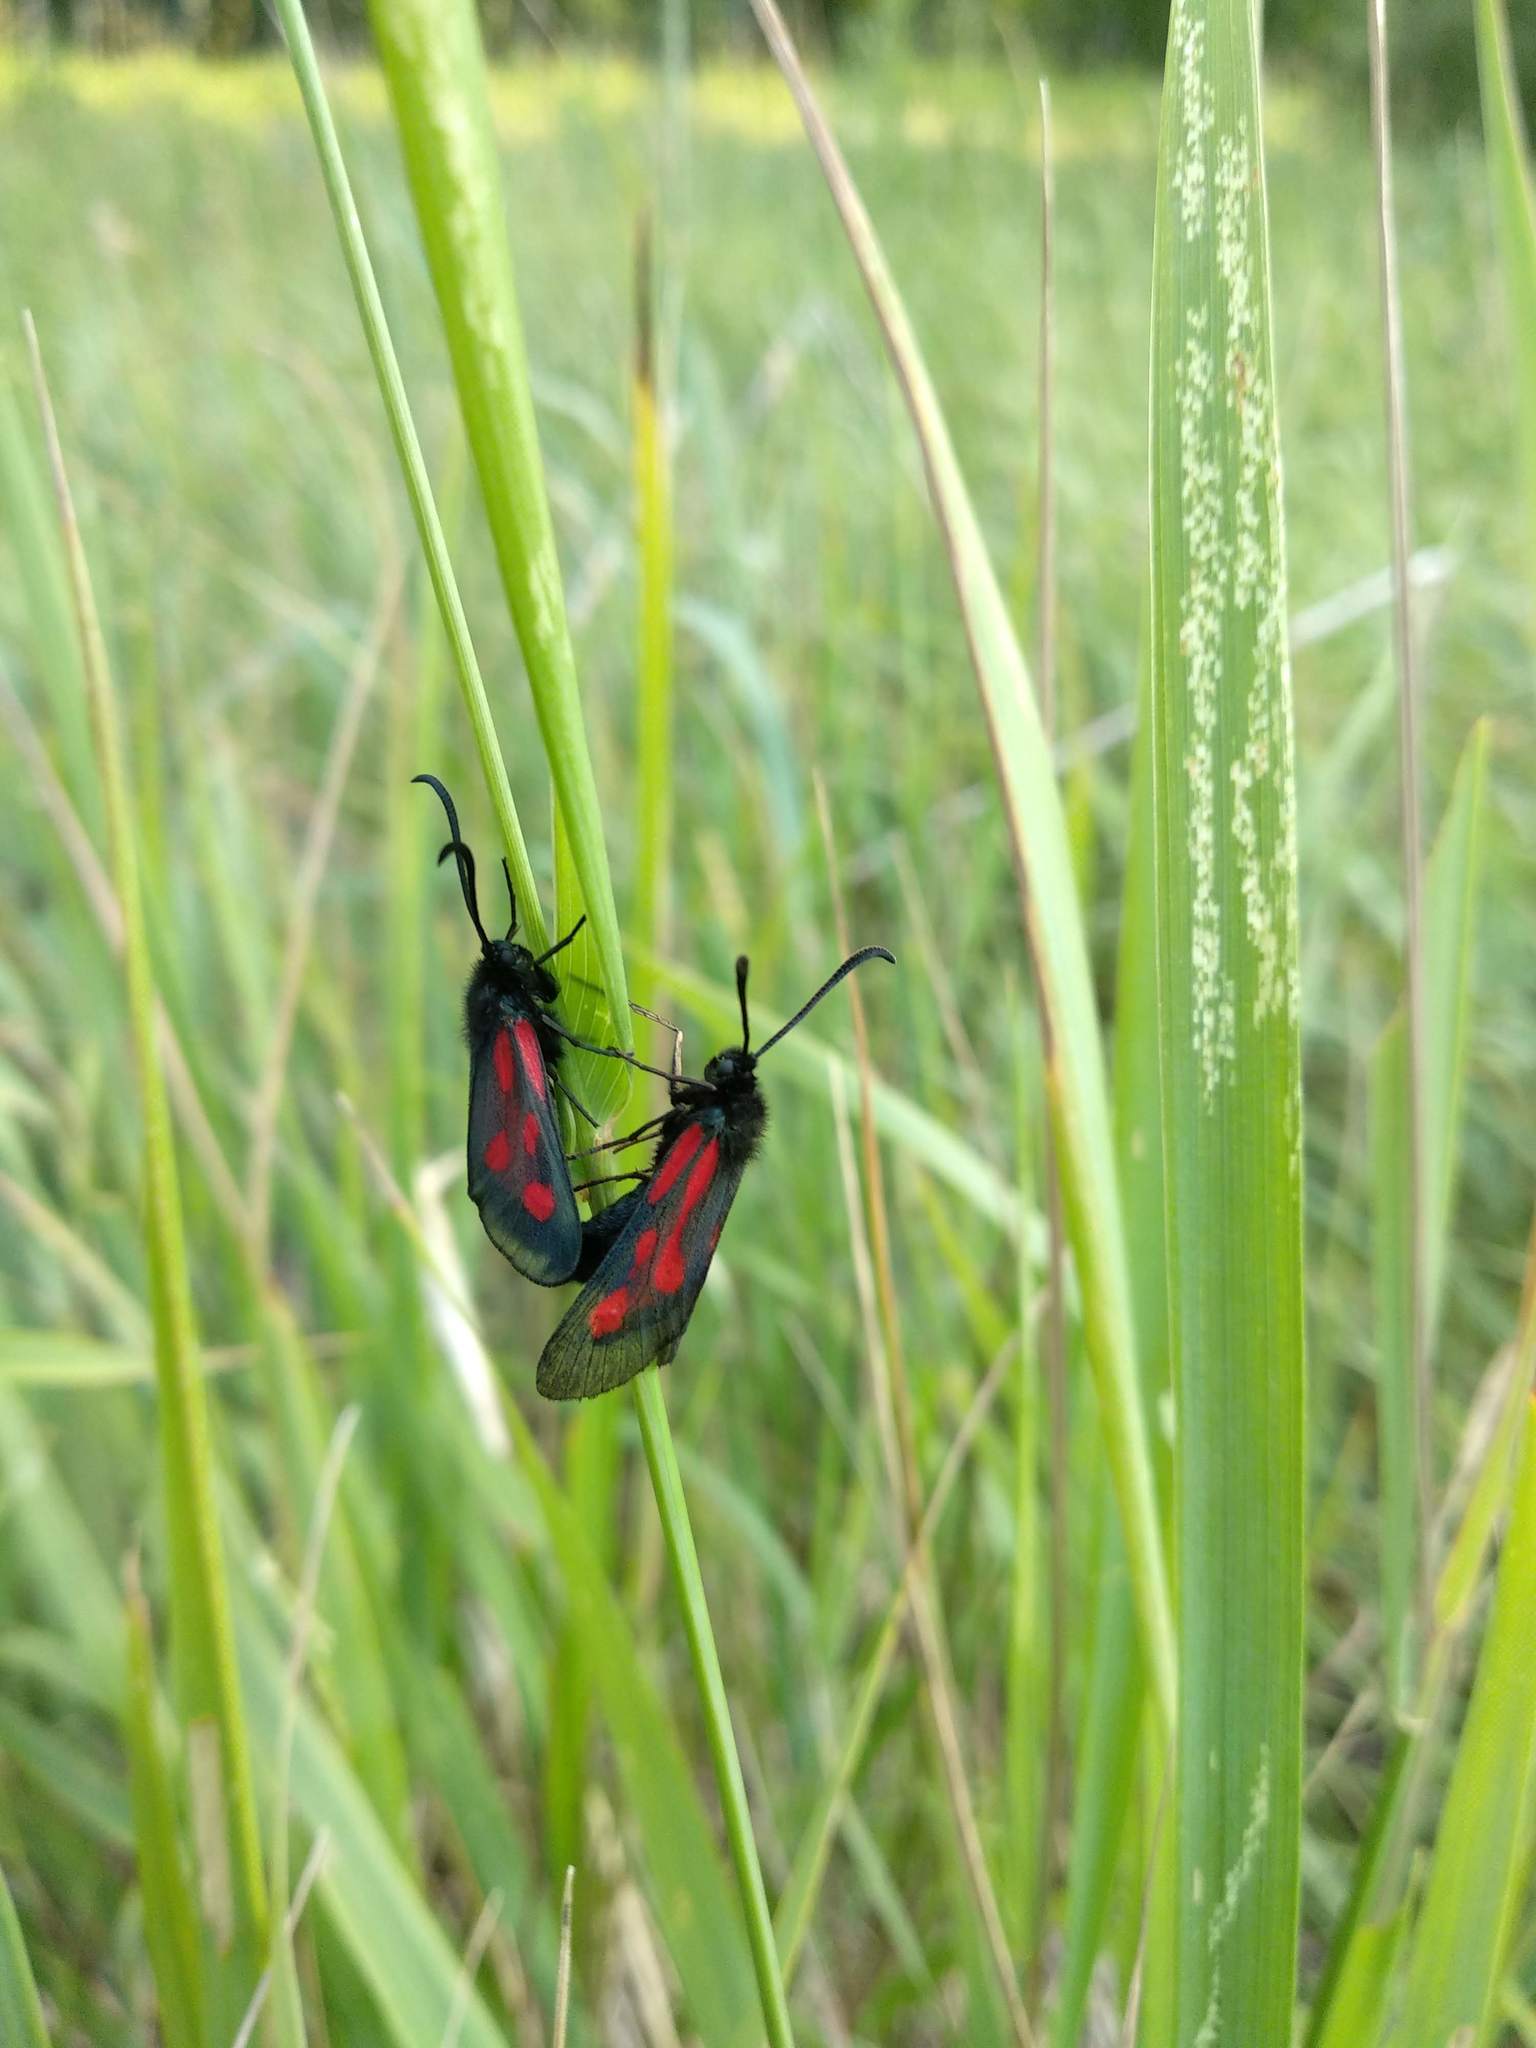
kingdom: Animalia
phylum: Arthropoda
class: Insecta
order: Lepidoptera
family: Zygaenidae
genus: Zygaena
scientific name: Zygaena osterodensis
